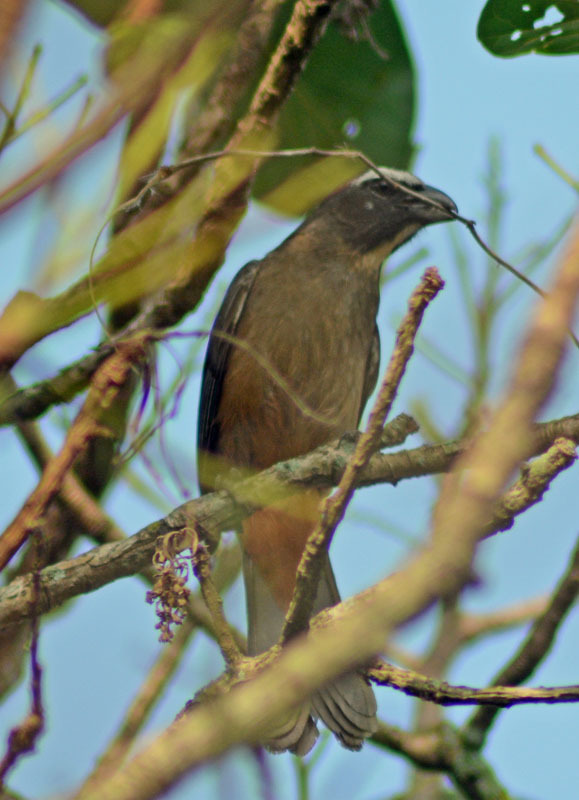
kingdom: Animalia
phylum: Chordata
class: Aves
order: Passeriformes
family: Thraupidae
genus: Saltator
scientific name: Saltator grandis
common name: Cinnamon-bellied saltator
